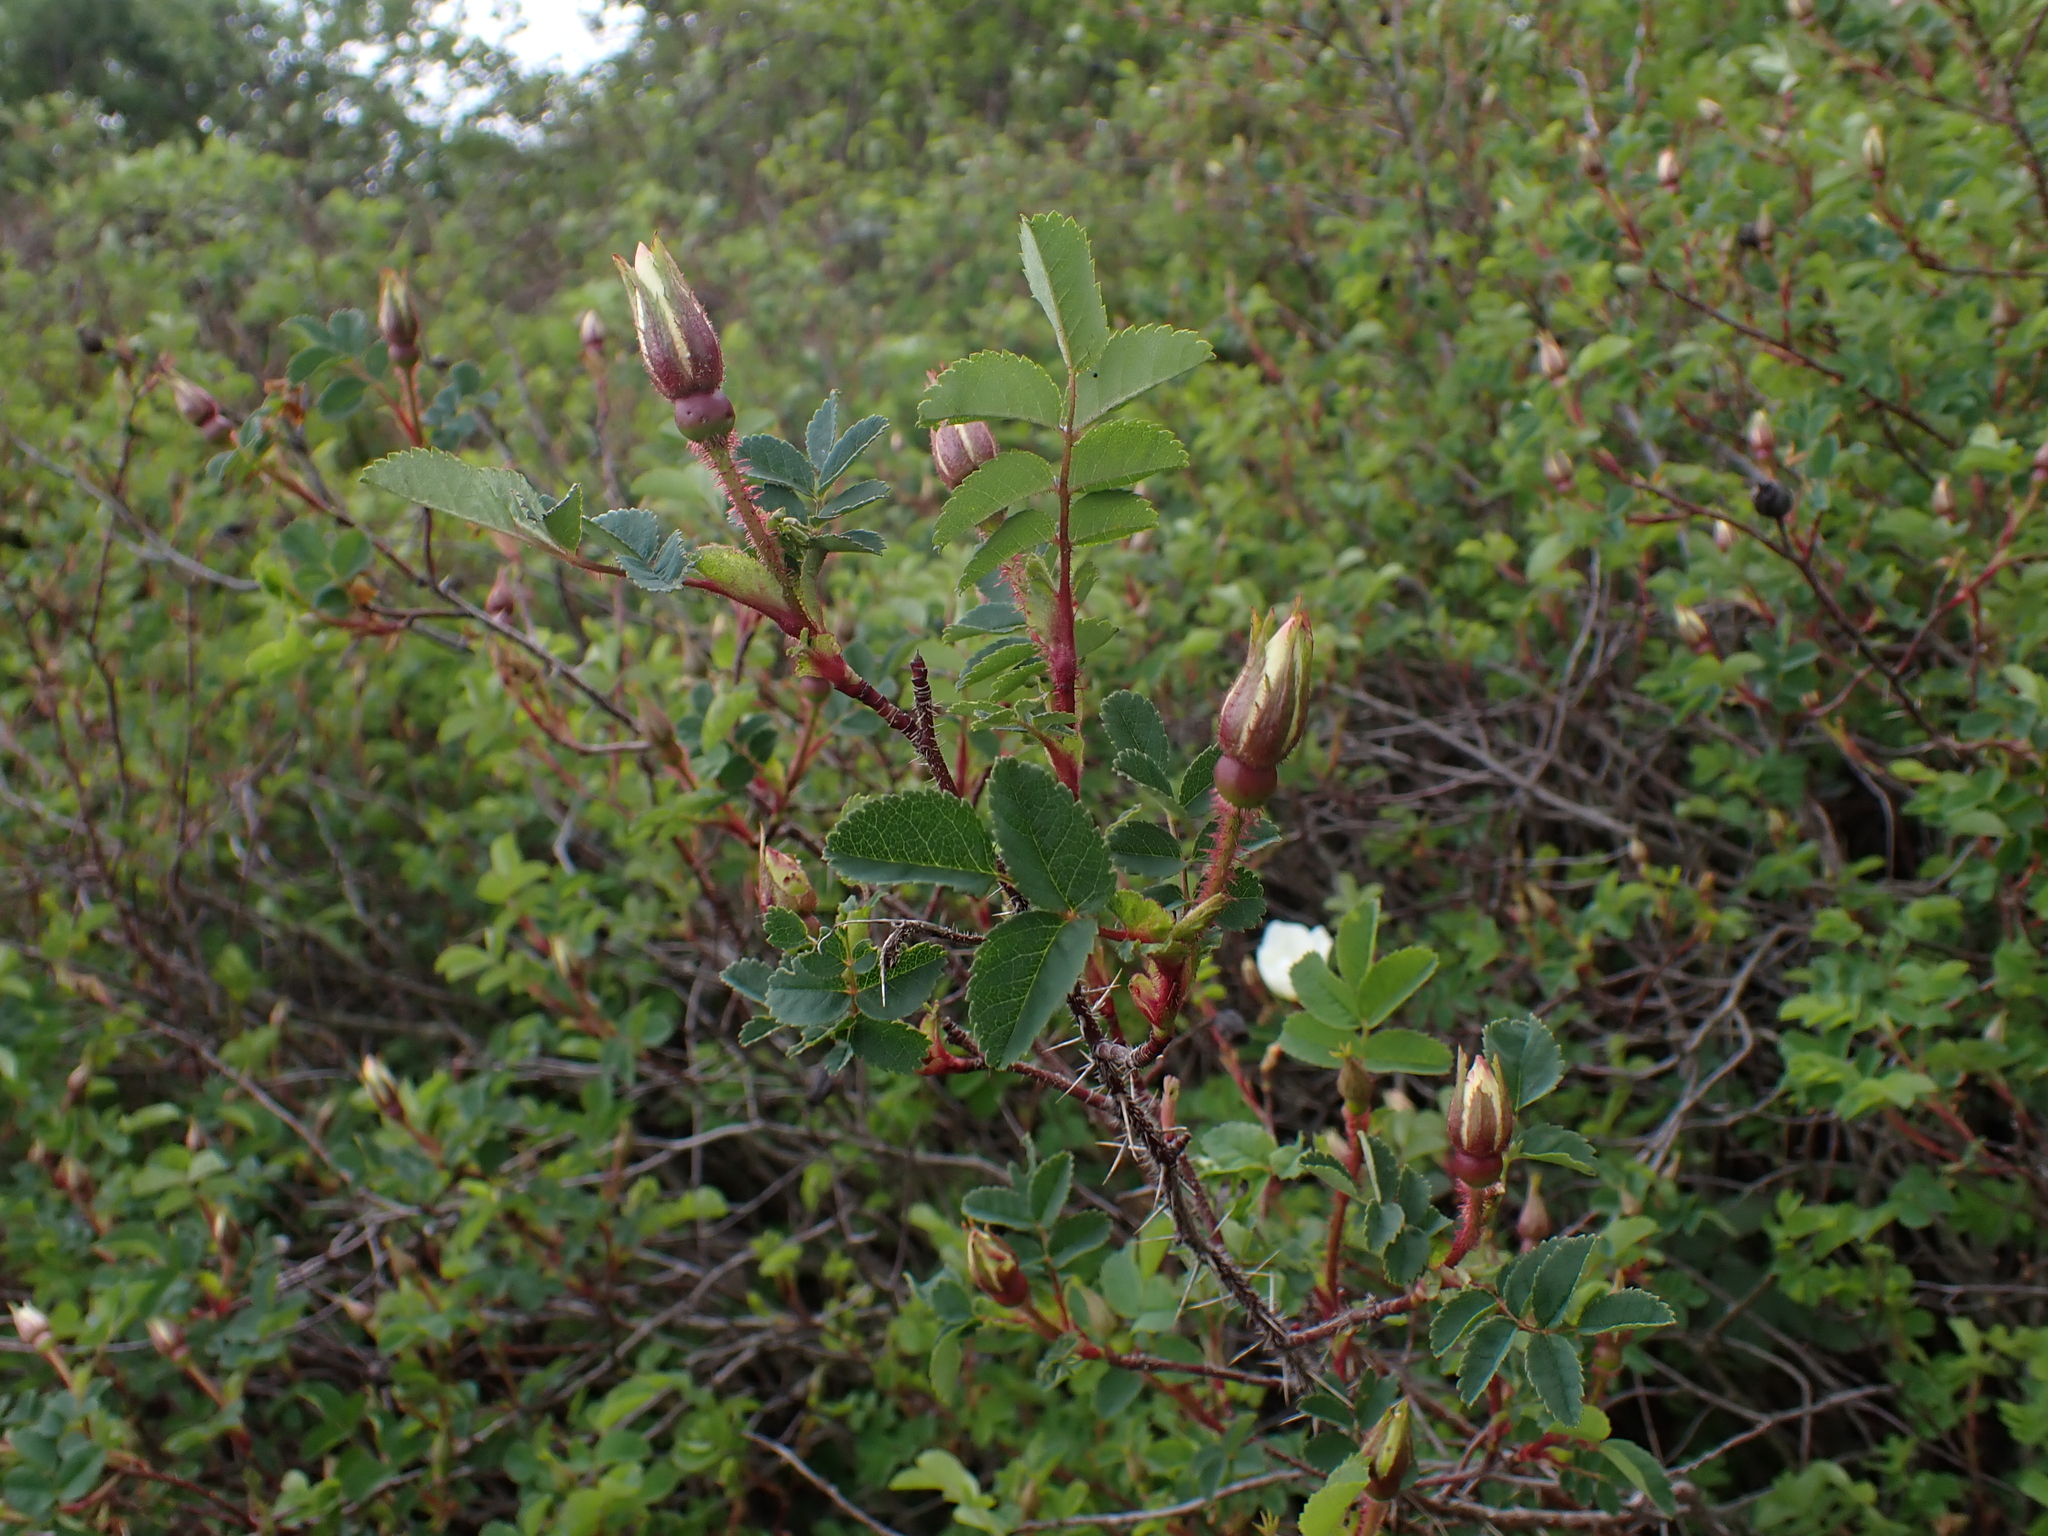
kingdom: Plantae
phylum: Tracheophyta
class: Magnoliopsida
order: Rosales
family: Rosaceae
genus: Rosa
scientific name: Rosa spinosissima
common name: Burnet rose
